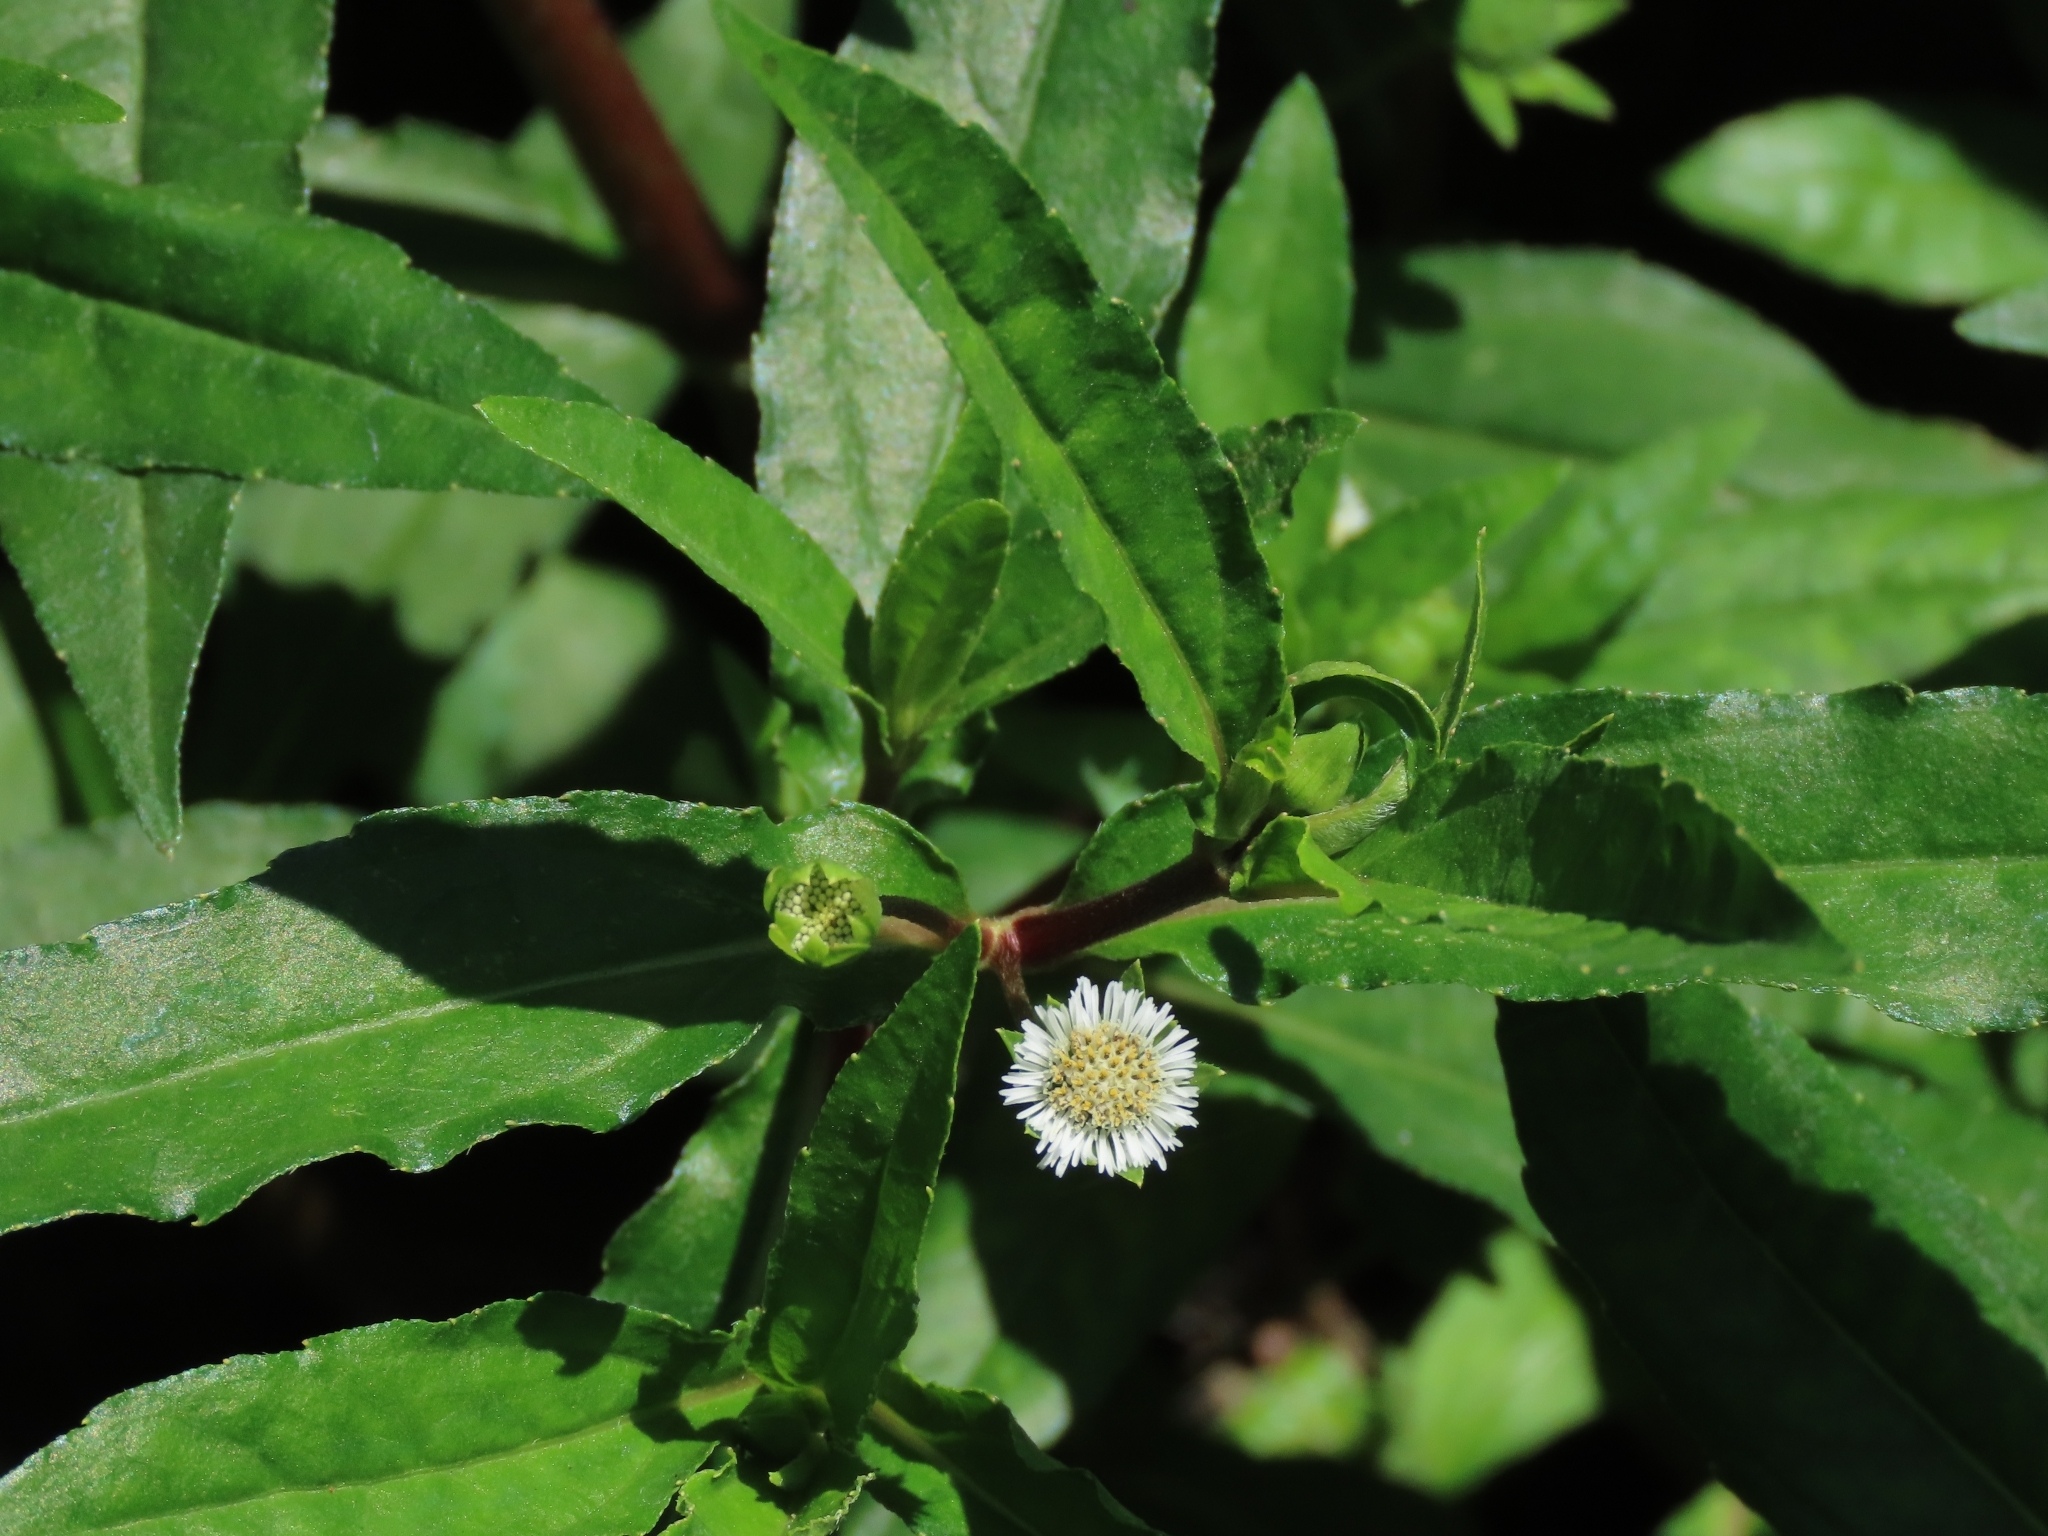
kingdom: Plantae
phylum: Tracheophyta
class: Magnoliopsida
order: Asterales
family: Asteraceae
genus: Eclipta
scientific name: Eclipta prostrata
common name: False daisy
